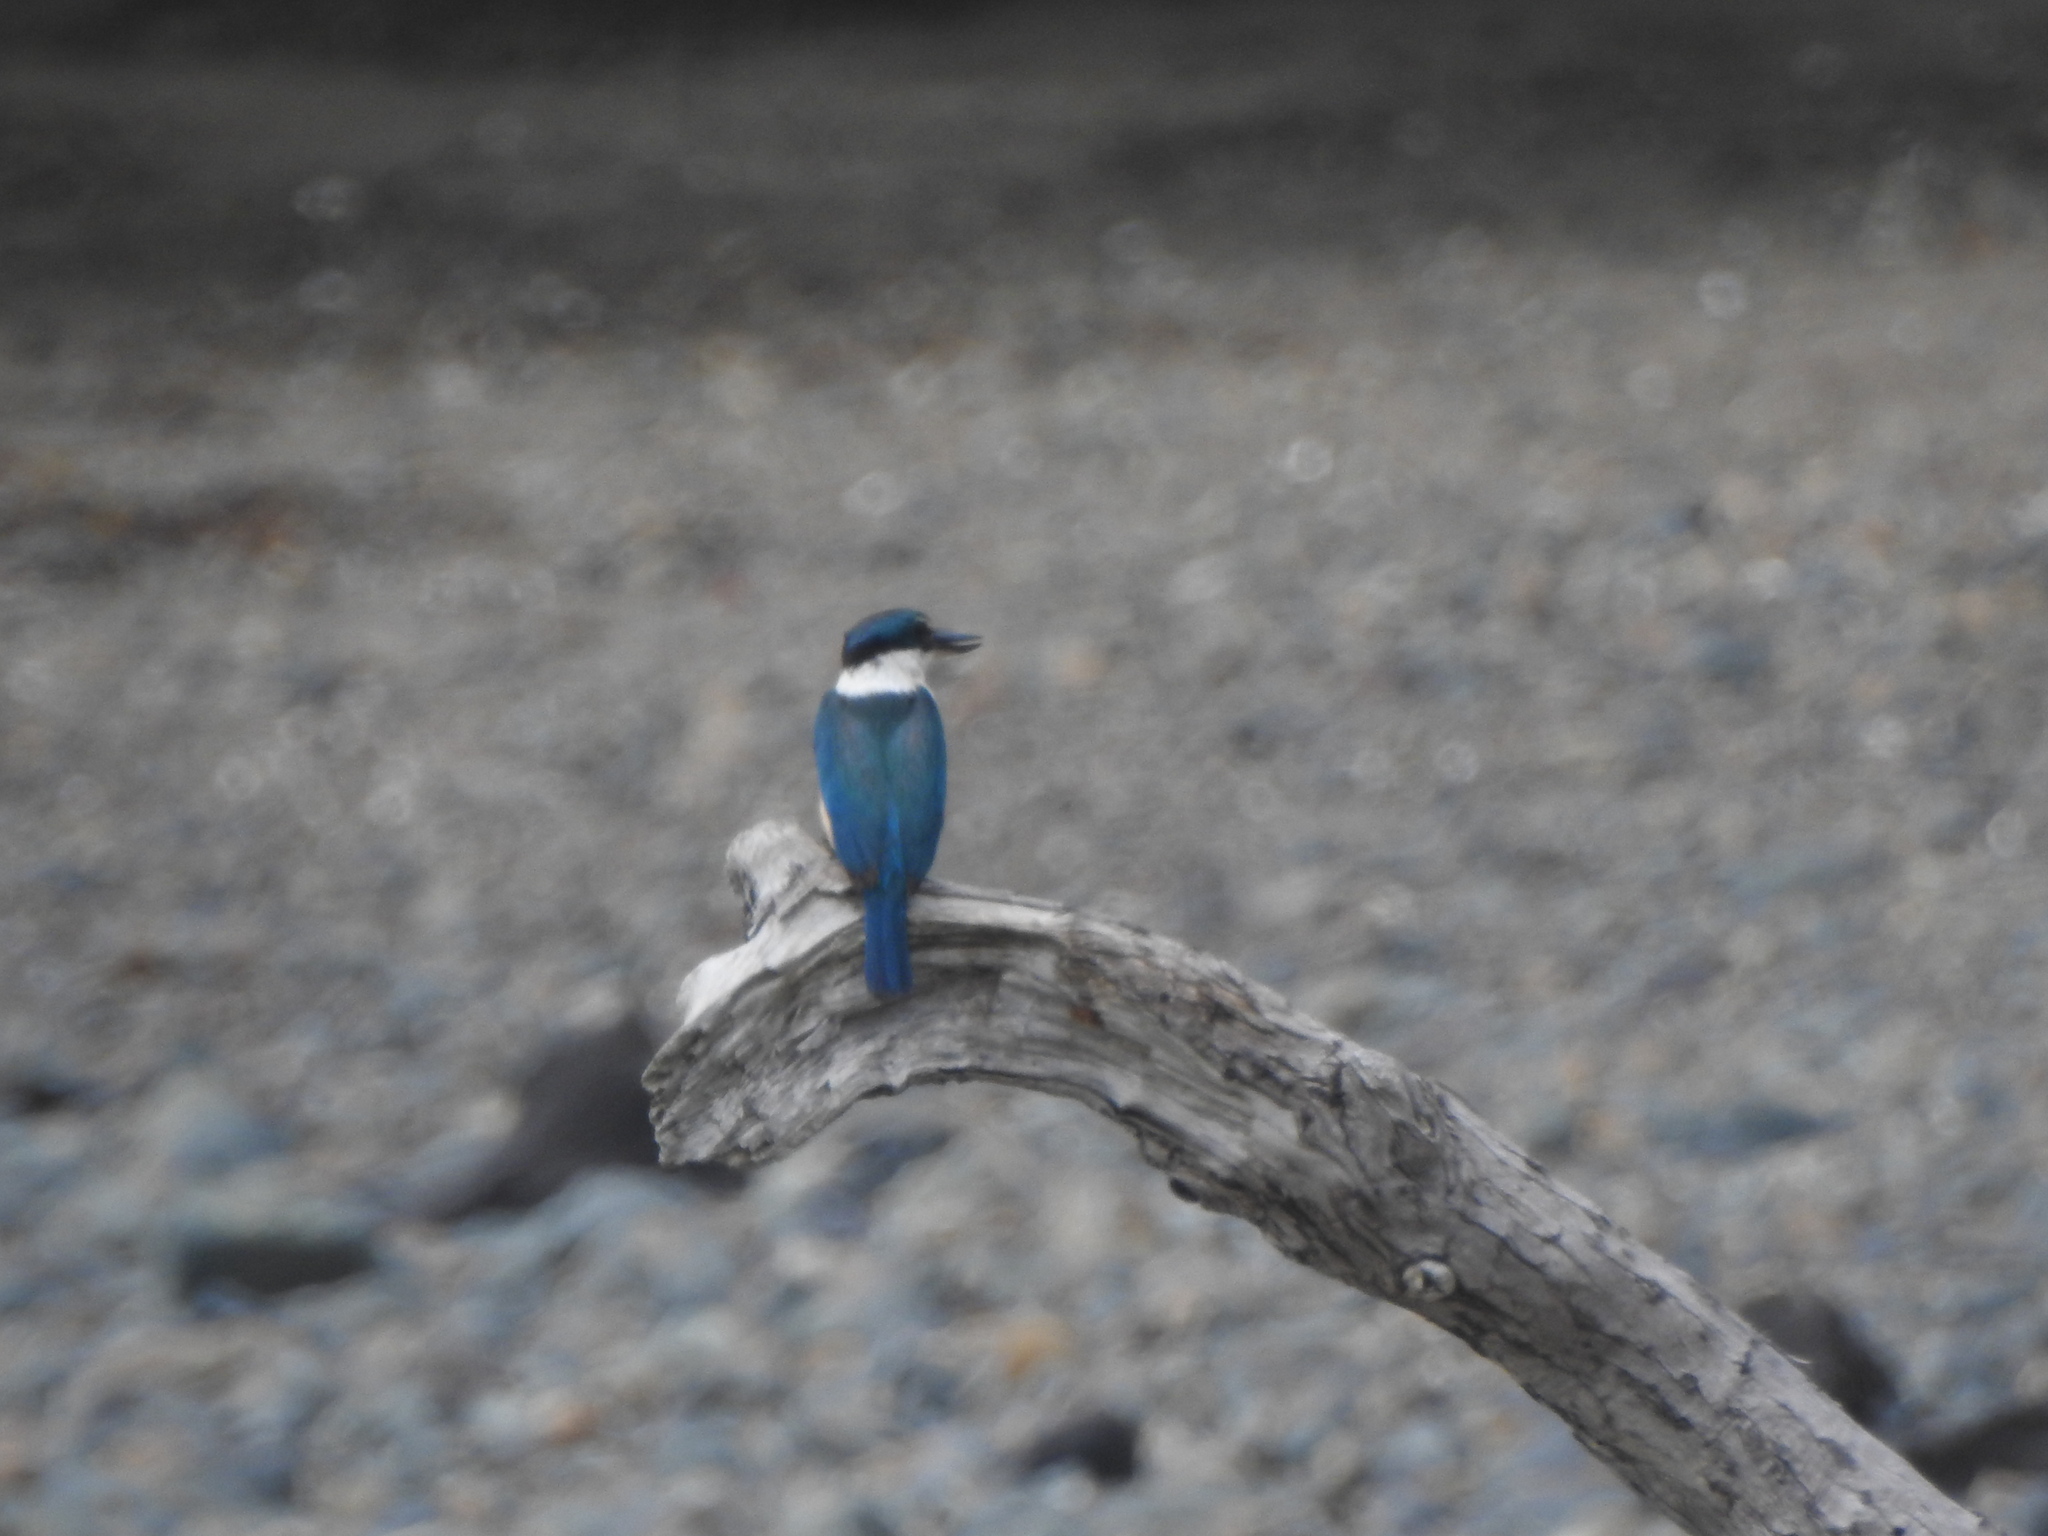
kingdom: Animalia
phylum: Chordata
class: Aves
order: Coraciiformes
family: Alcedinidae
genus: Todiramphus
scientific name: Todiramphus sanctus
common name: Sacred kingfisher
